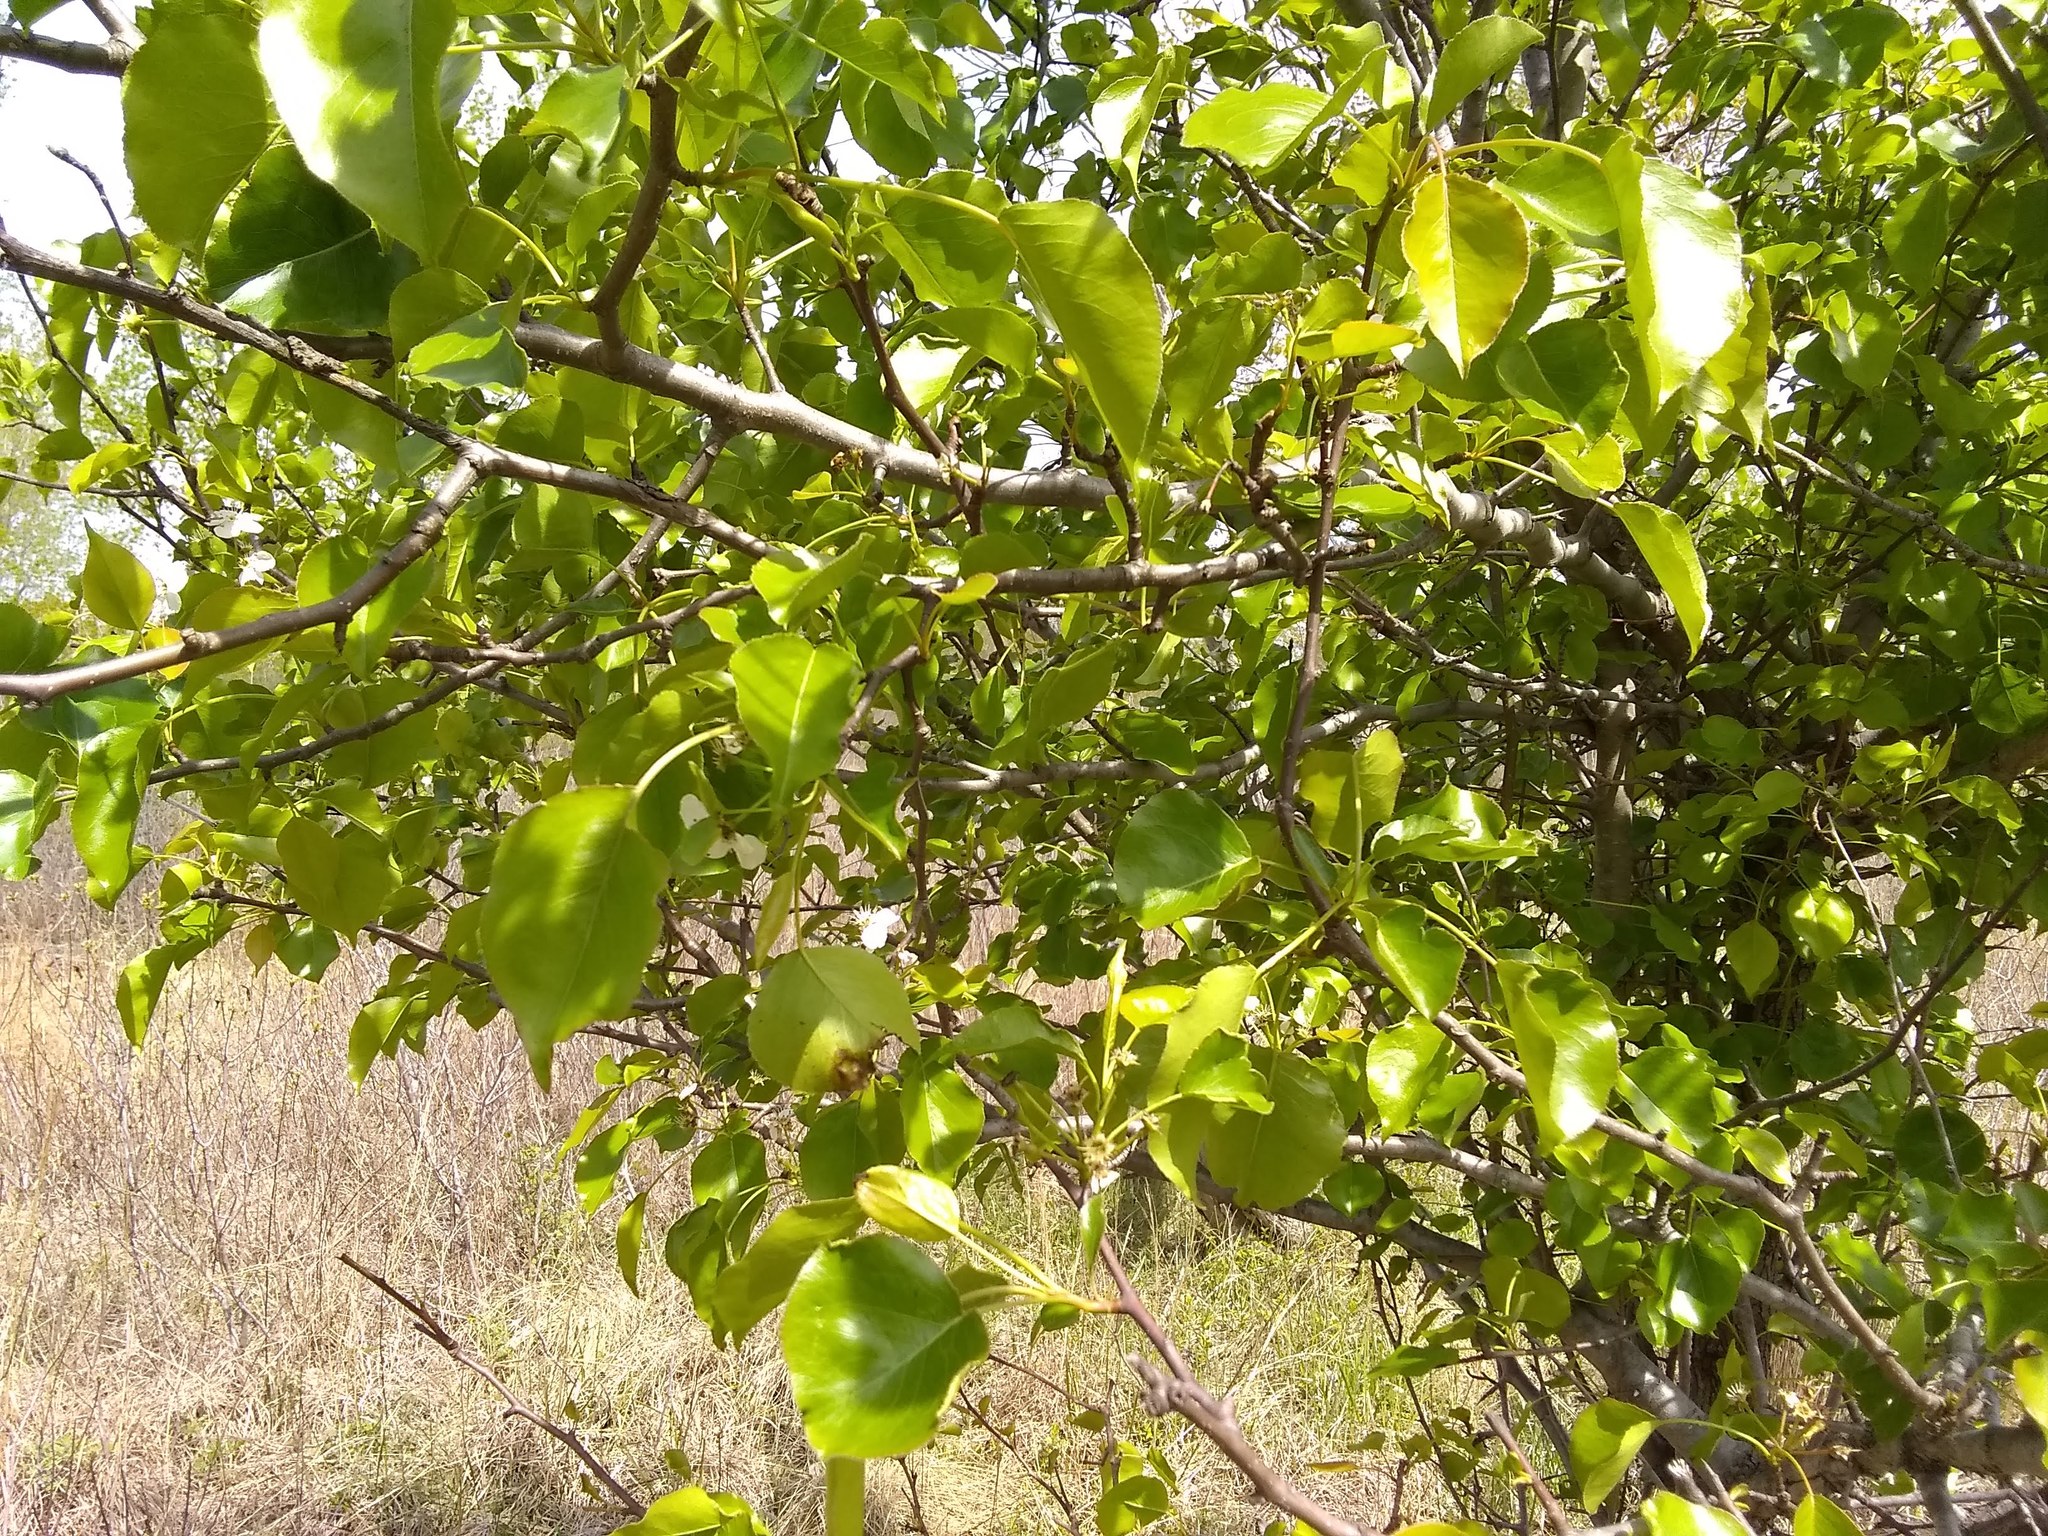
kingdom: Plantae
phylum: Tracheophyta
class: Magnoliopsida
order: Rosales
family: Rosaceae
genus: Pyrus
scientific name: Pyrus calleryana
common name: Callery pear
